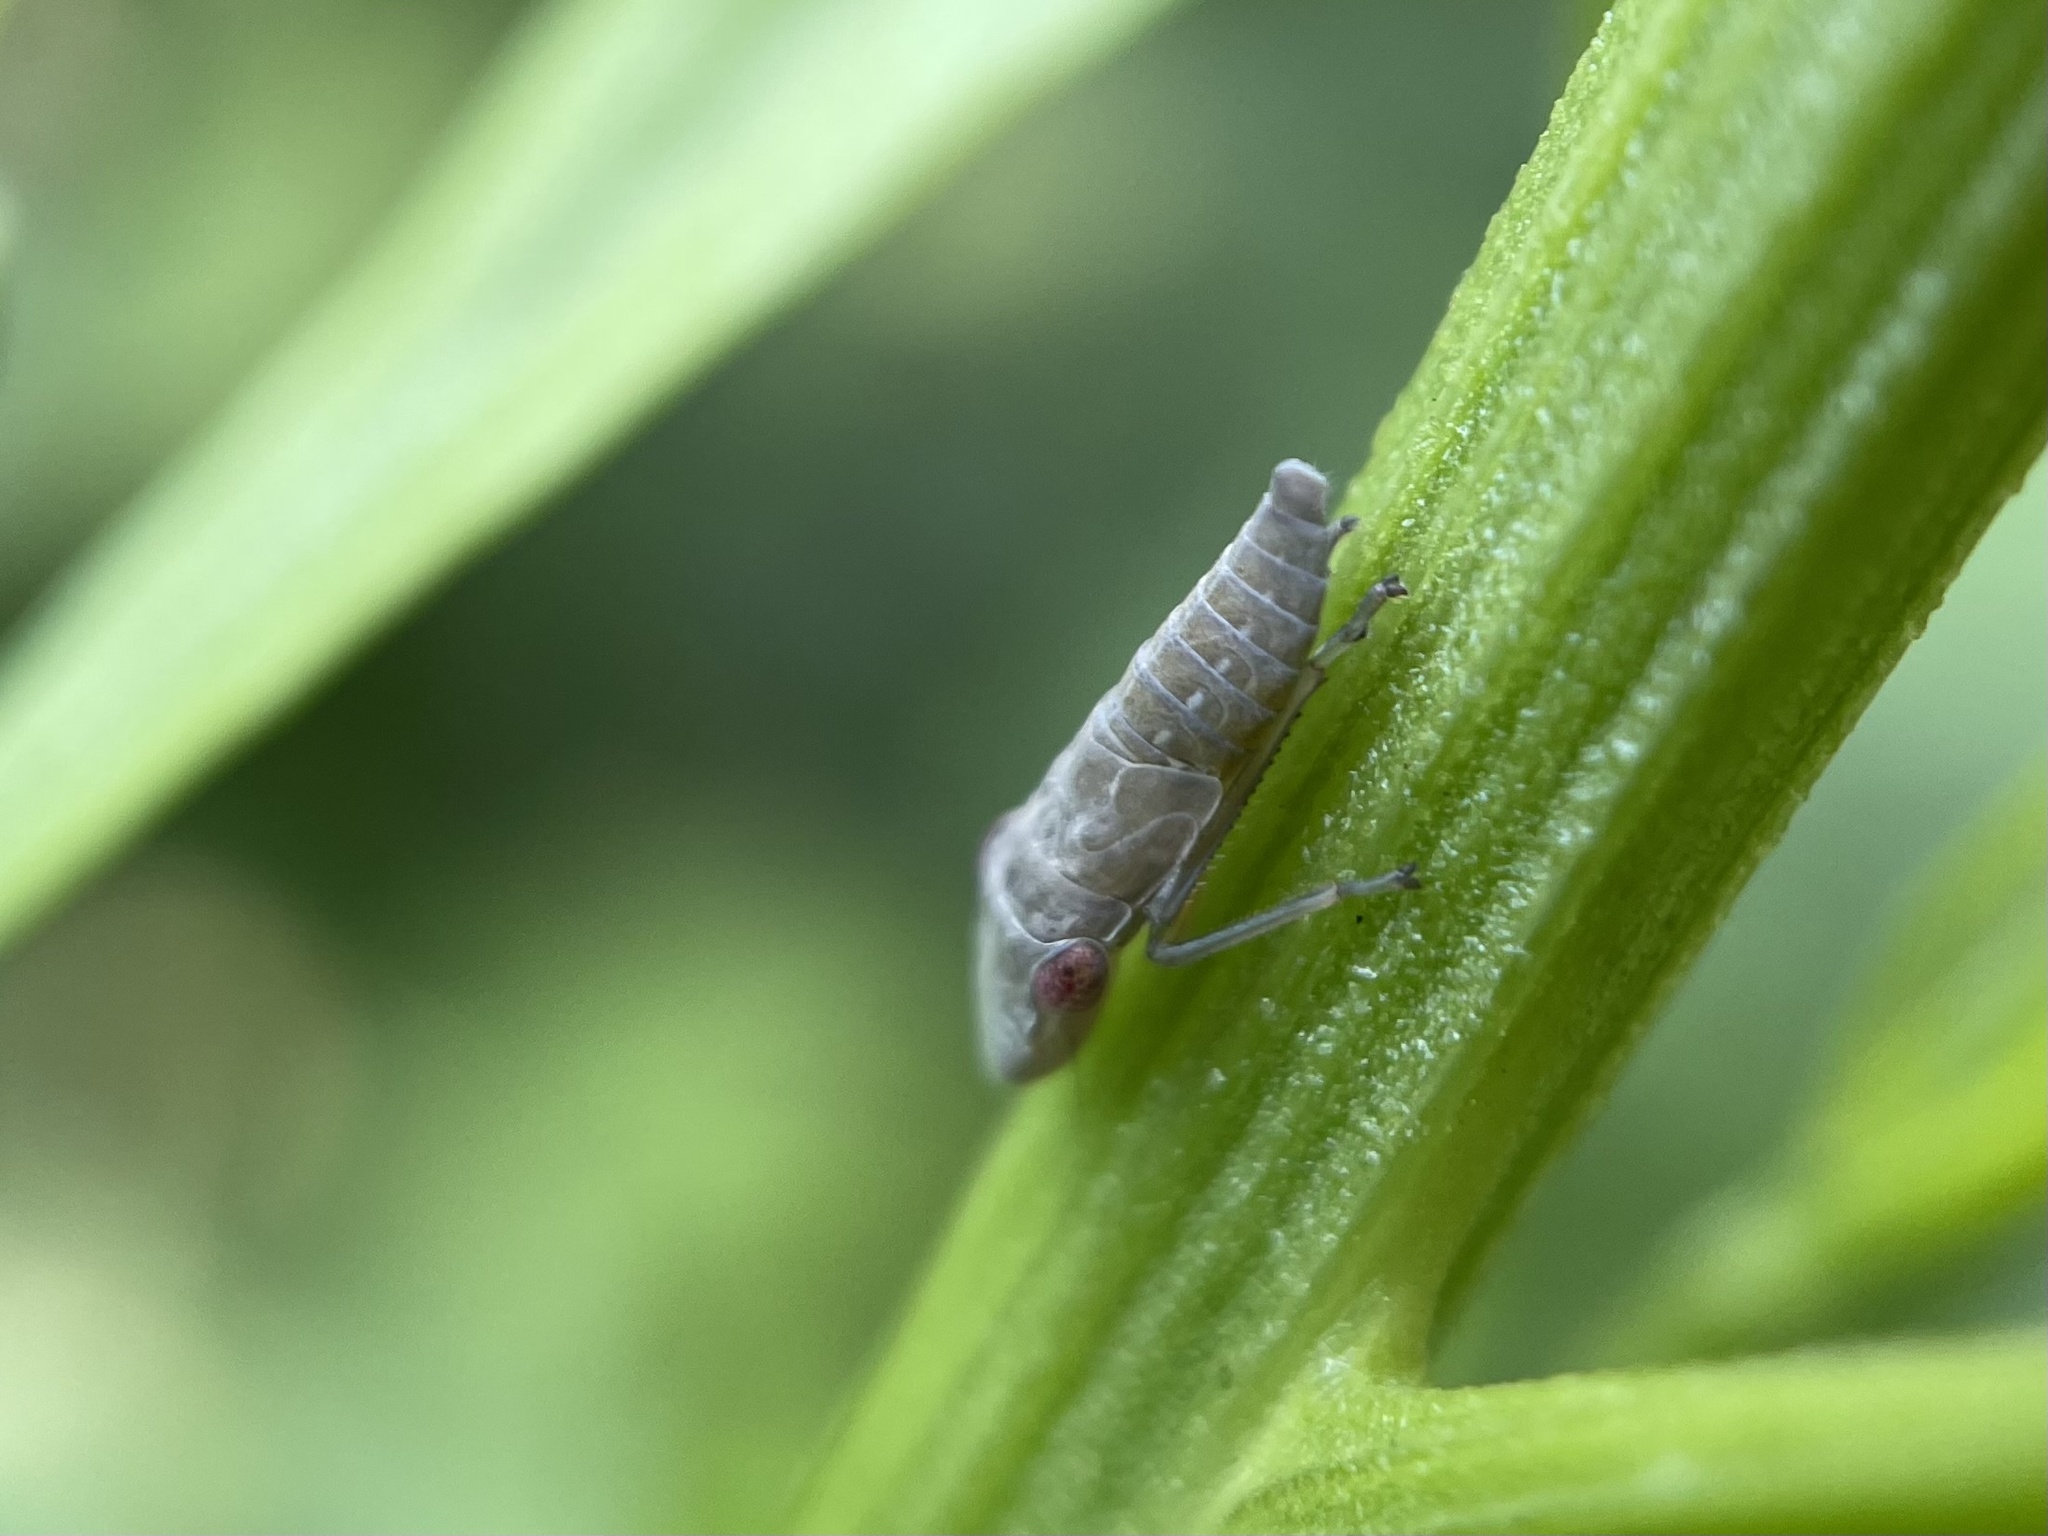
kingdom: Animalia
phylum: Arthropoda
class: Insecta
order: Hemiptera
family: Cicadellidae
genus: Homalodisca
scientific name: Homalodisca vitripennis
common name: Glassy-winged sharpshooter
